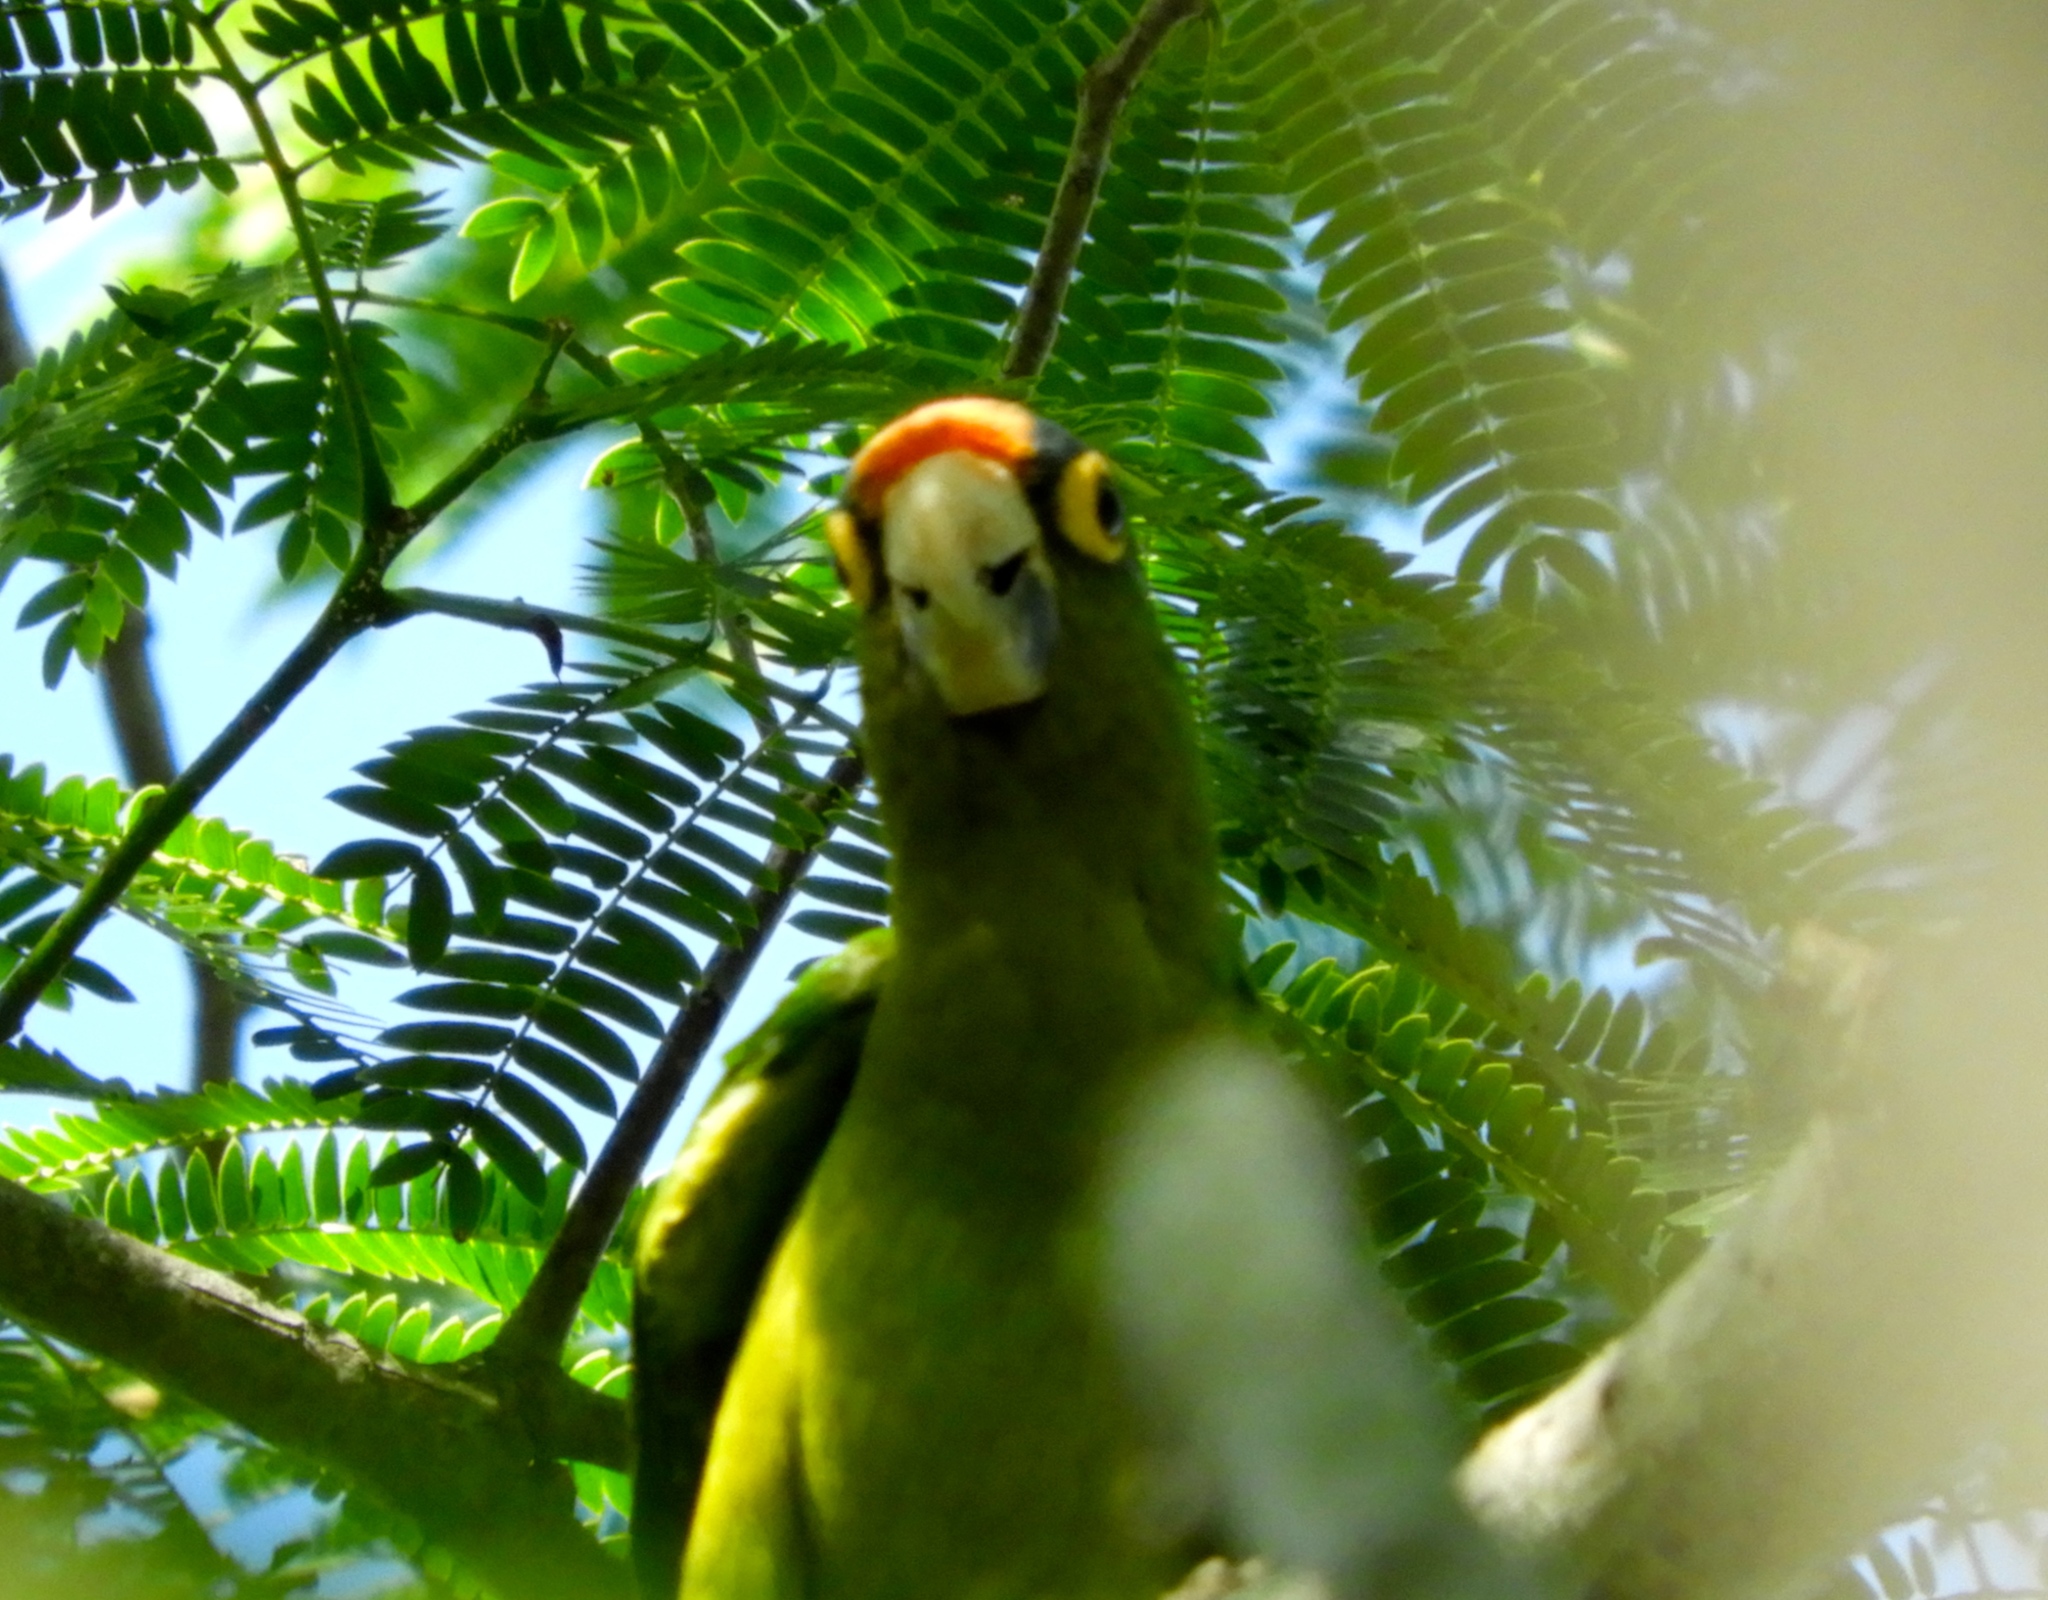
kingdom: Animalia
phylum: Chordata
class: Aves
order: Psittaciformes
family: Psittacidae
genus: Aratinga
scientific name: Aratinga canicularis
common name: Orange-fronted parakeet
